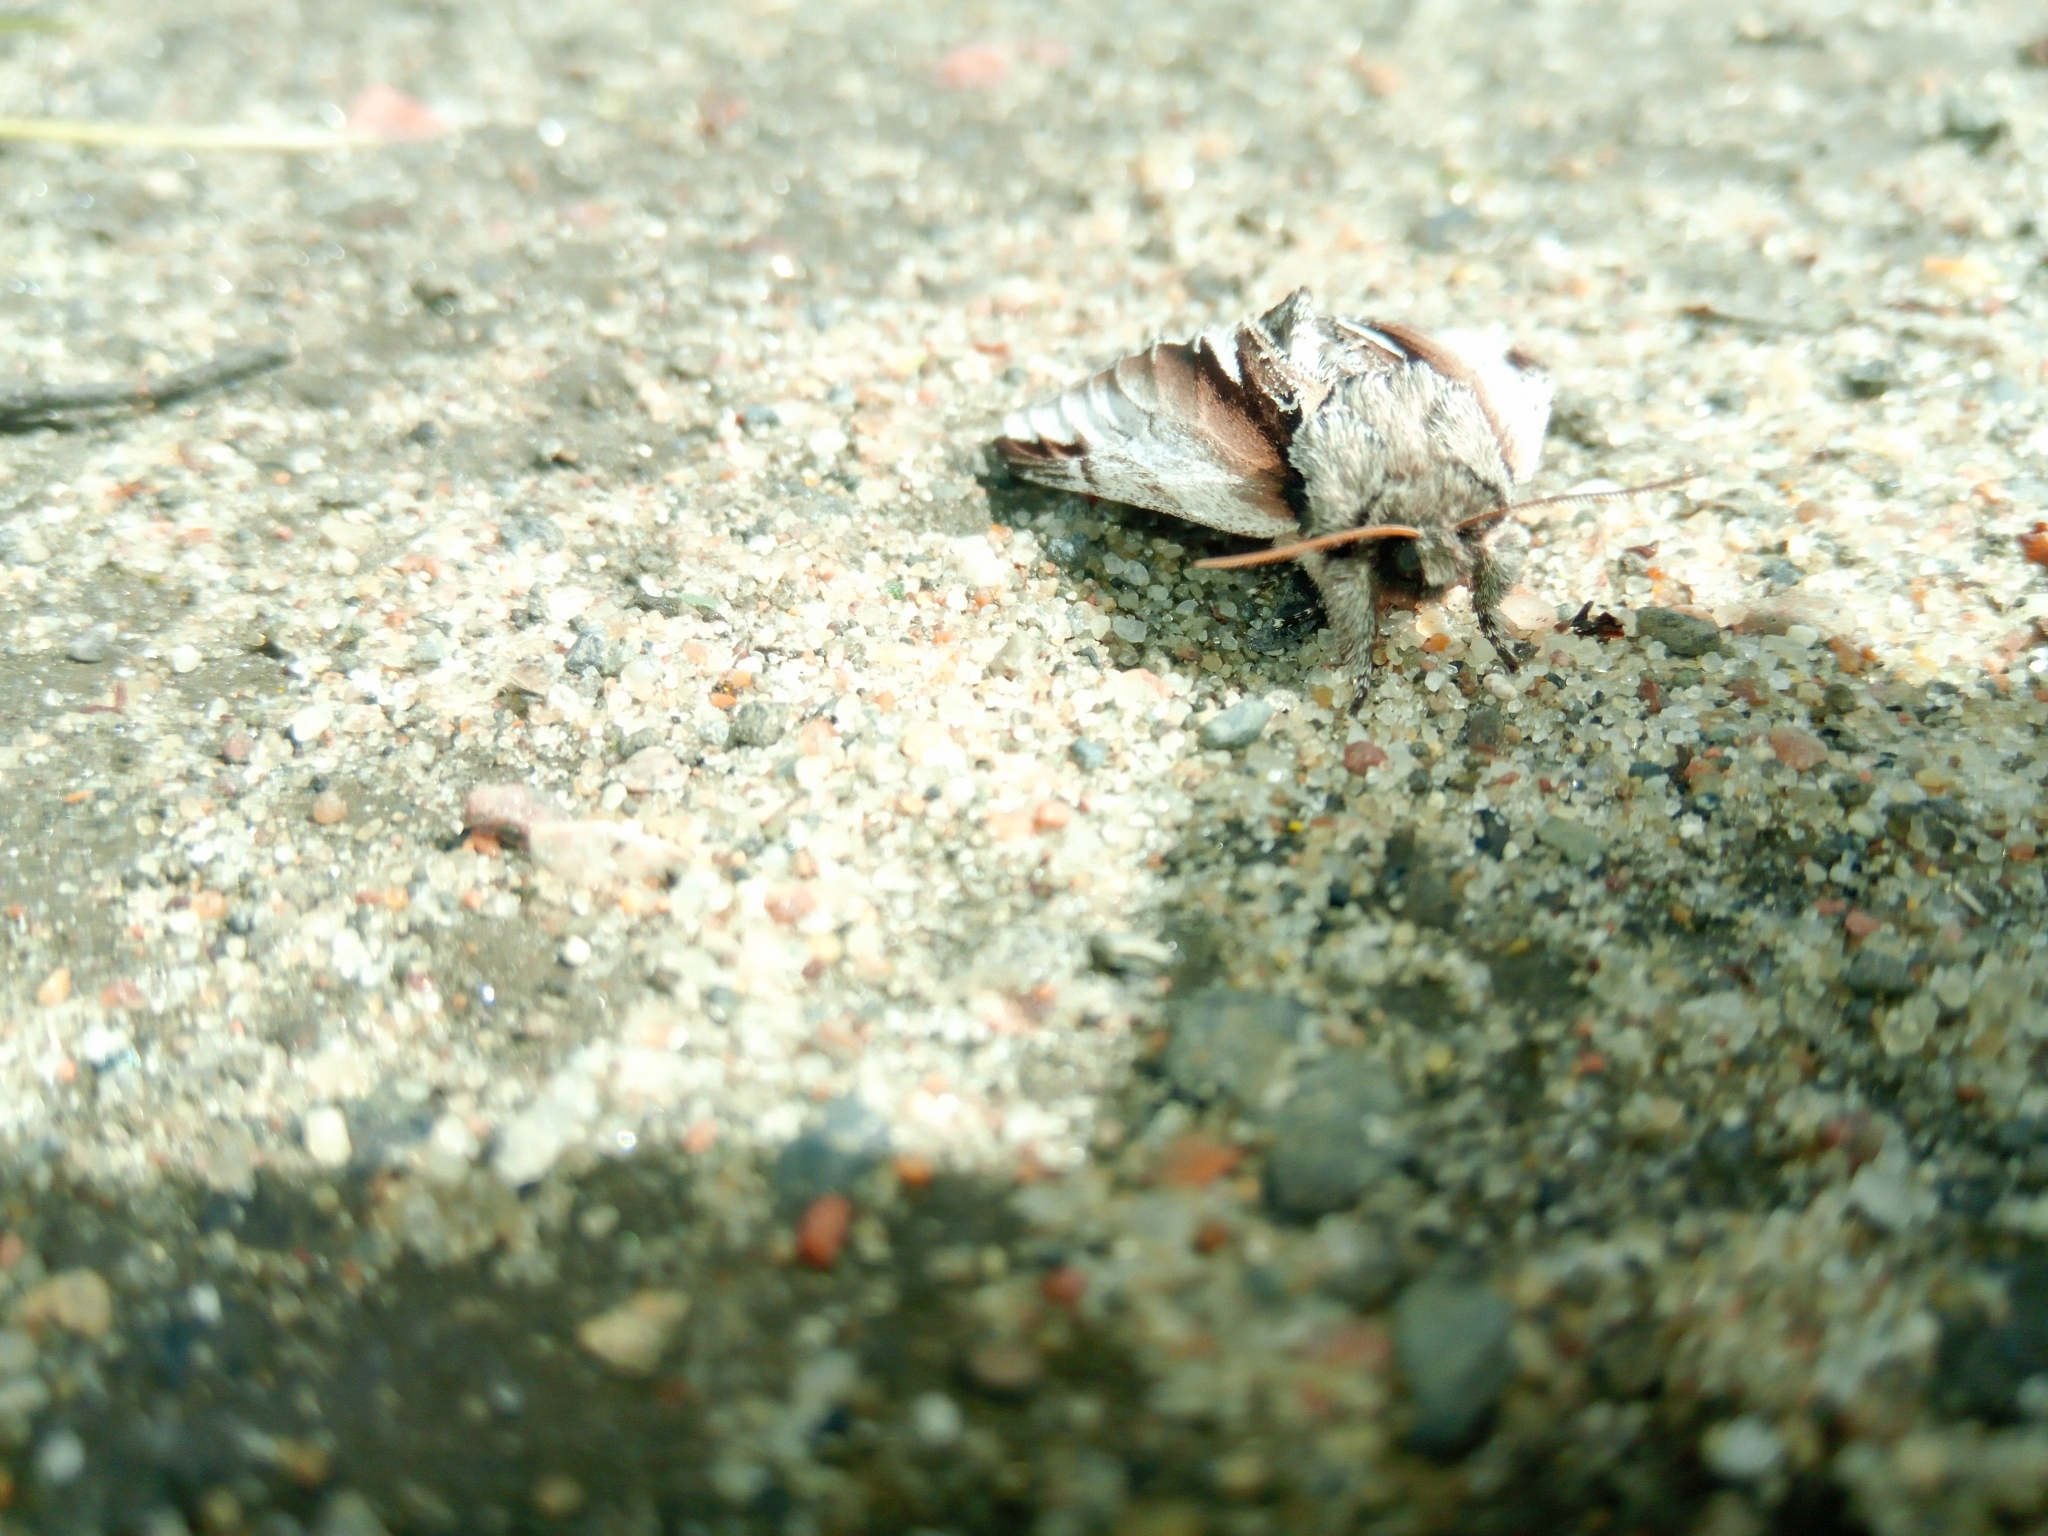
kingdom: Animalia
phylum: Arthropoda
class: Insecta
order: Lepidoptera
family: Notodontidae
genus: Pheosia
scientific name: Pheosia gnoma
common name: Lesser swallow prominent
